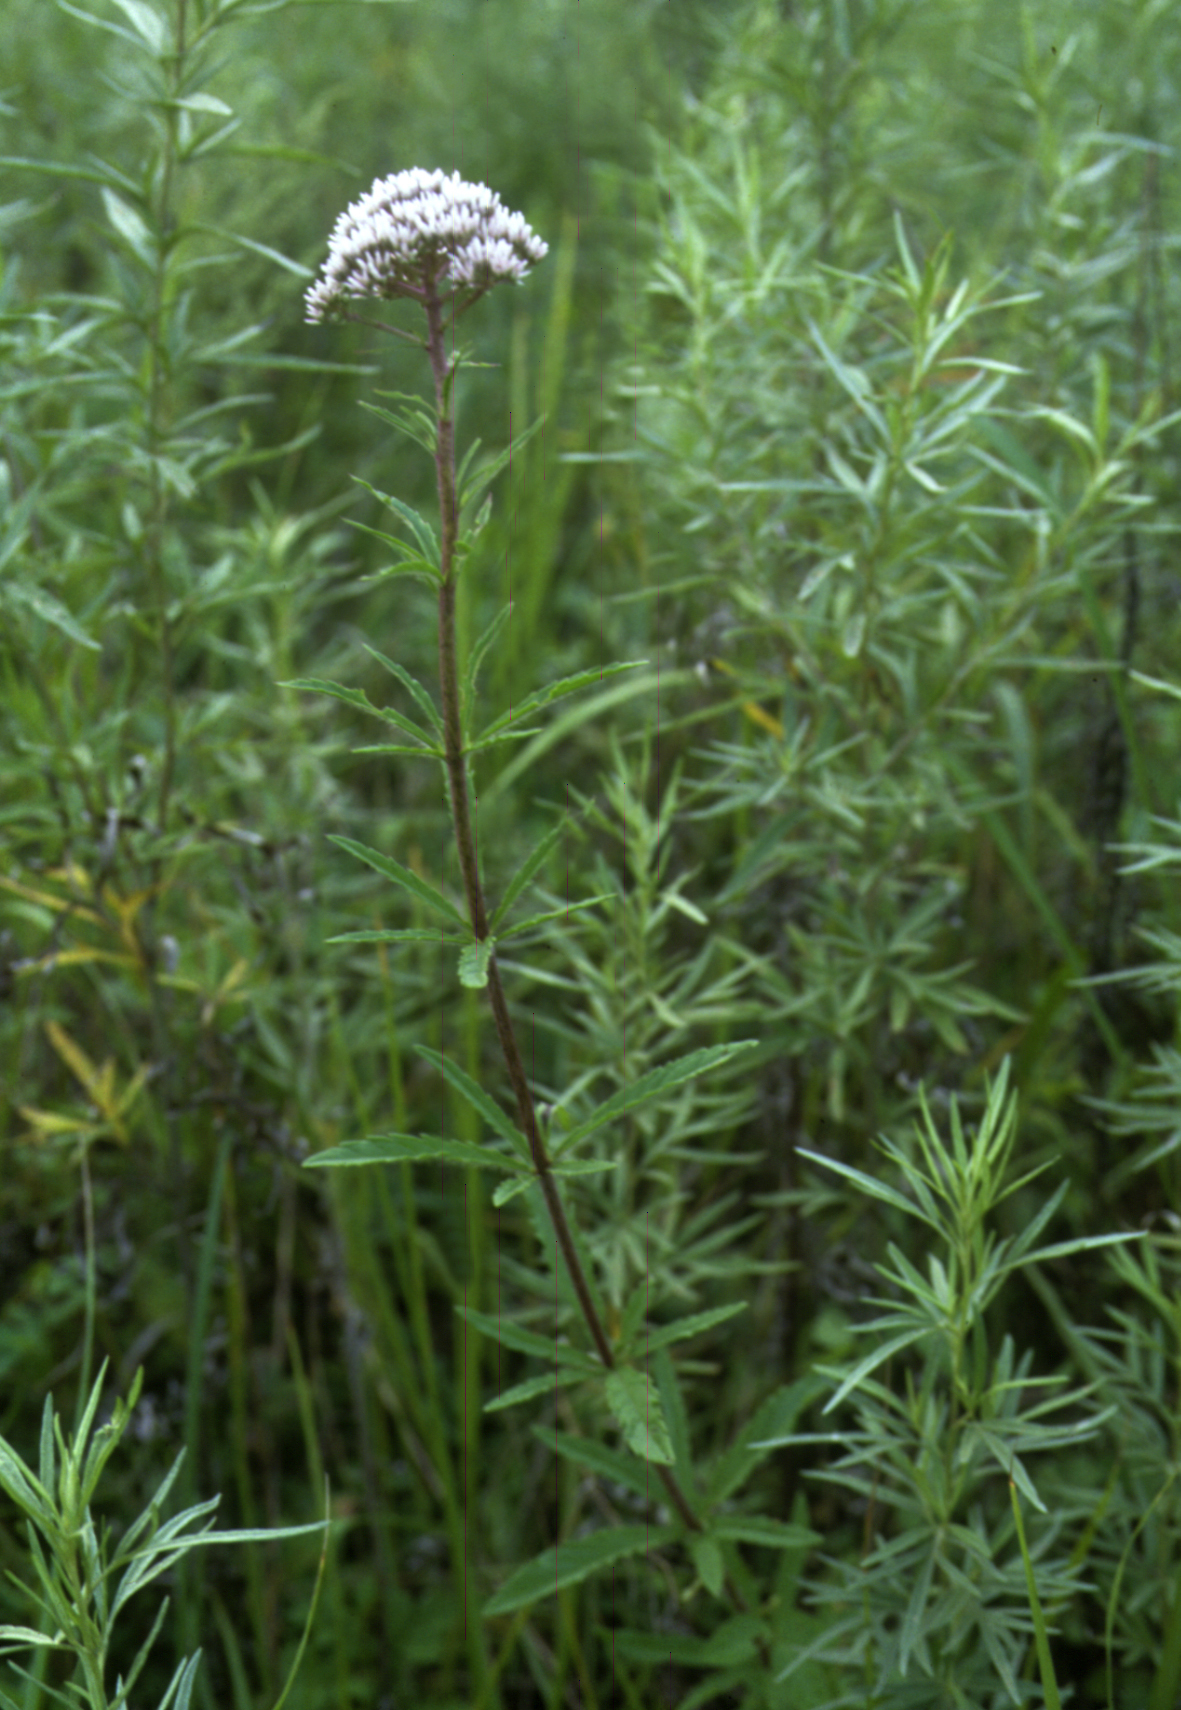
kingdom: Plantae
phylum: Tracheophyta
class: Magnoliopsida
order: Asterales
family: Asteraceae
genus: Eupatorium
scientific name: Eupatorium lindleyanum
